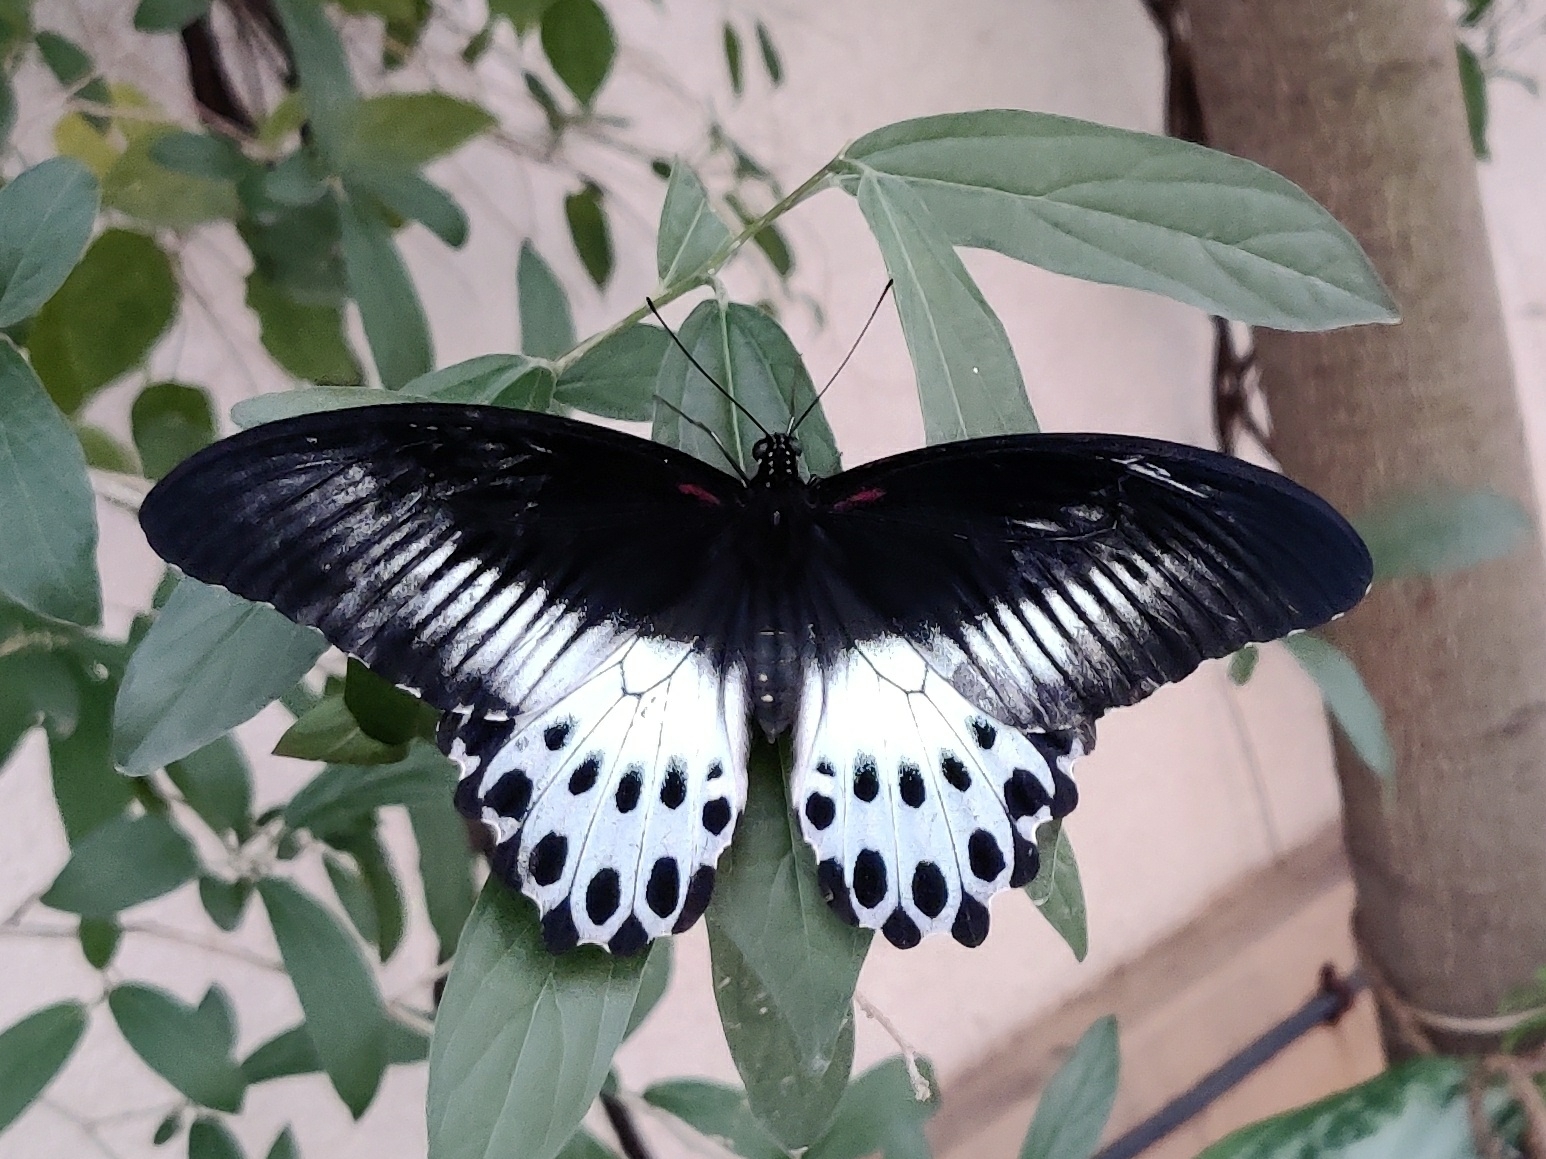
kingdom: Animalia
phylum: Arthropoda
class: Insecta
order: Lepidoptera
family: Papilionidae
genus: Papilio
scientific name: Papilio memnon
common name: Great mormon
